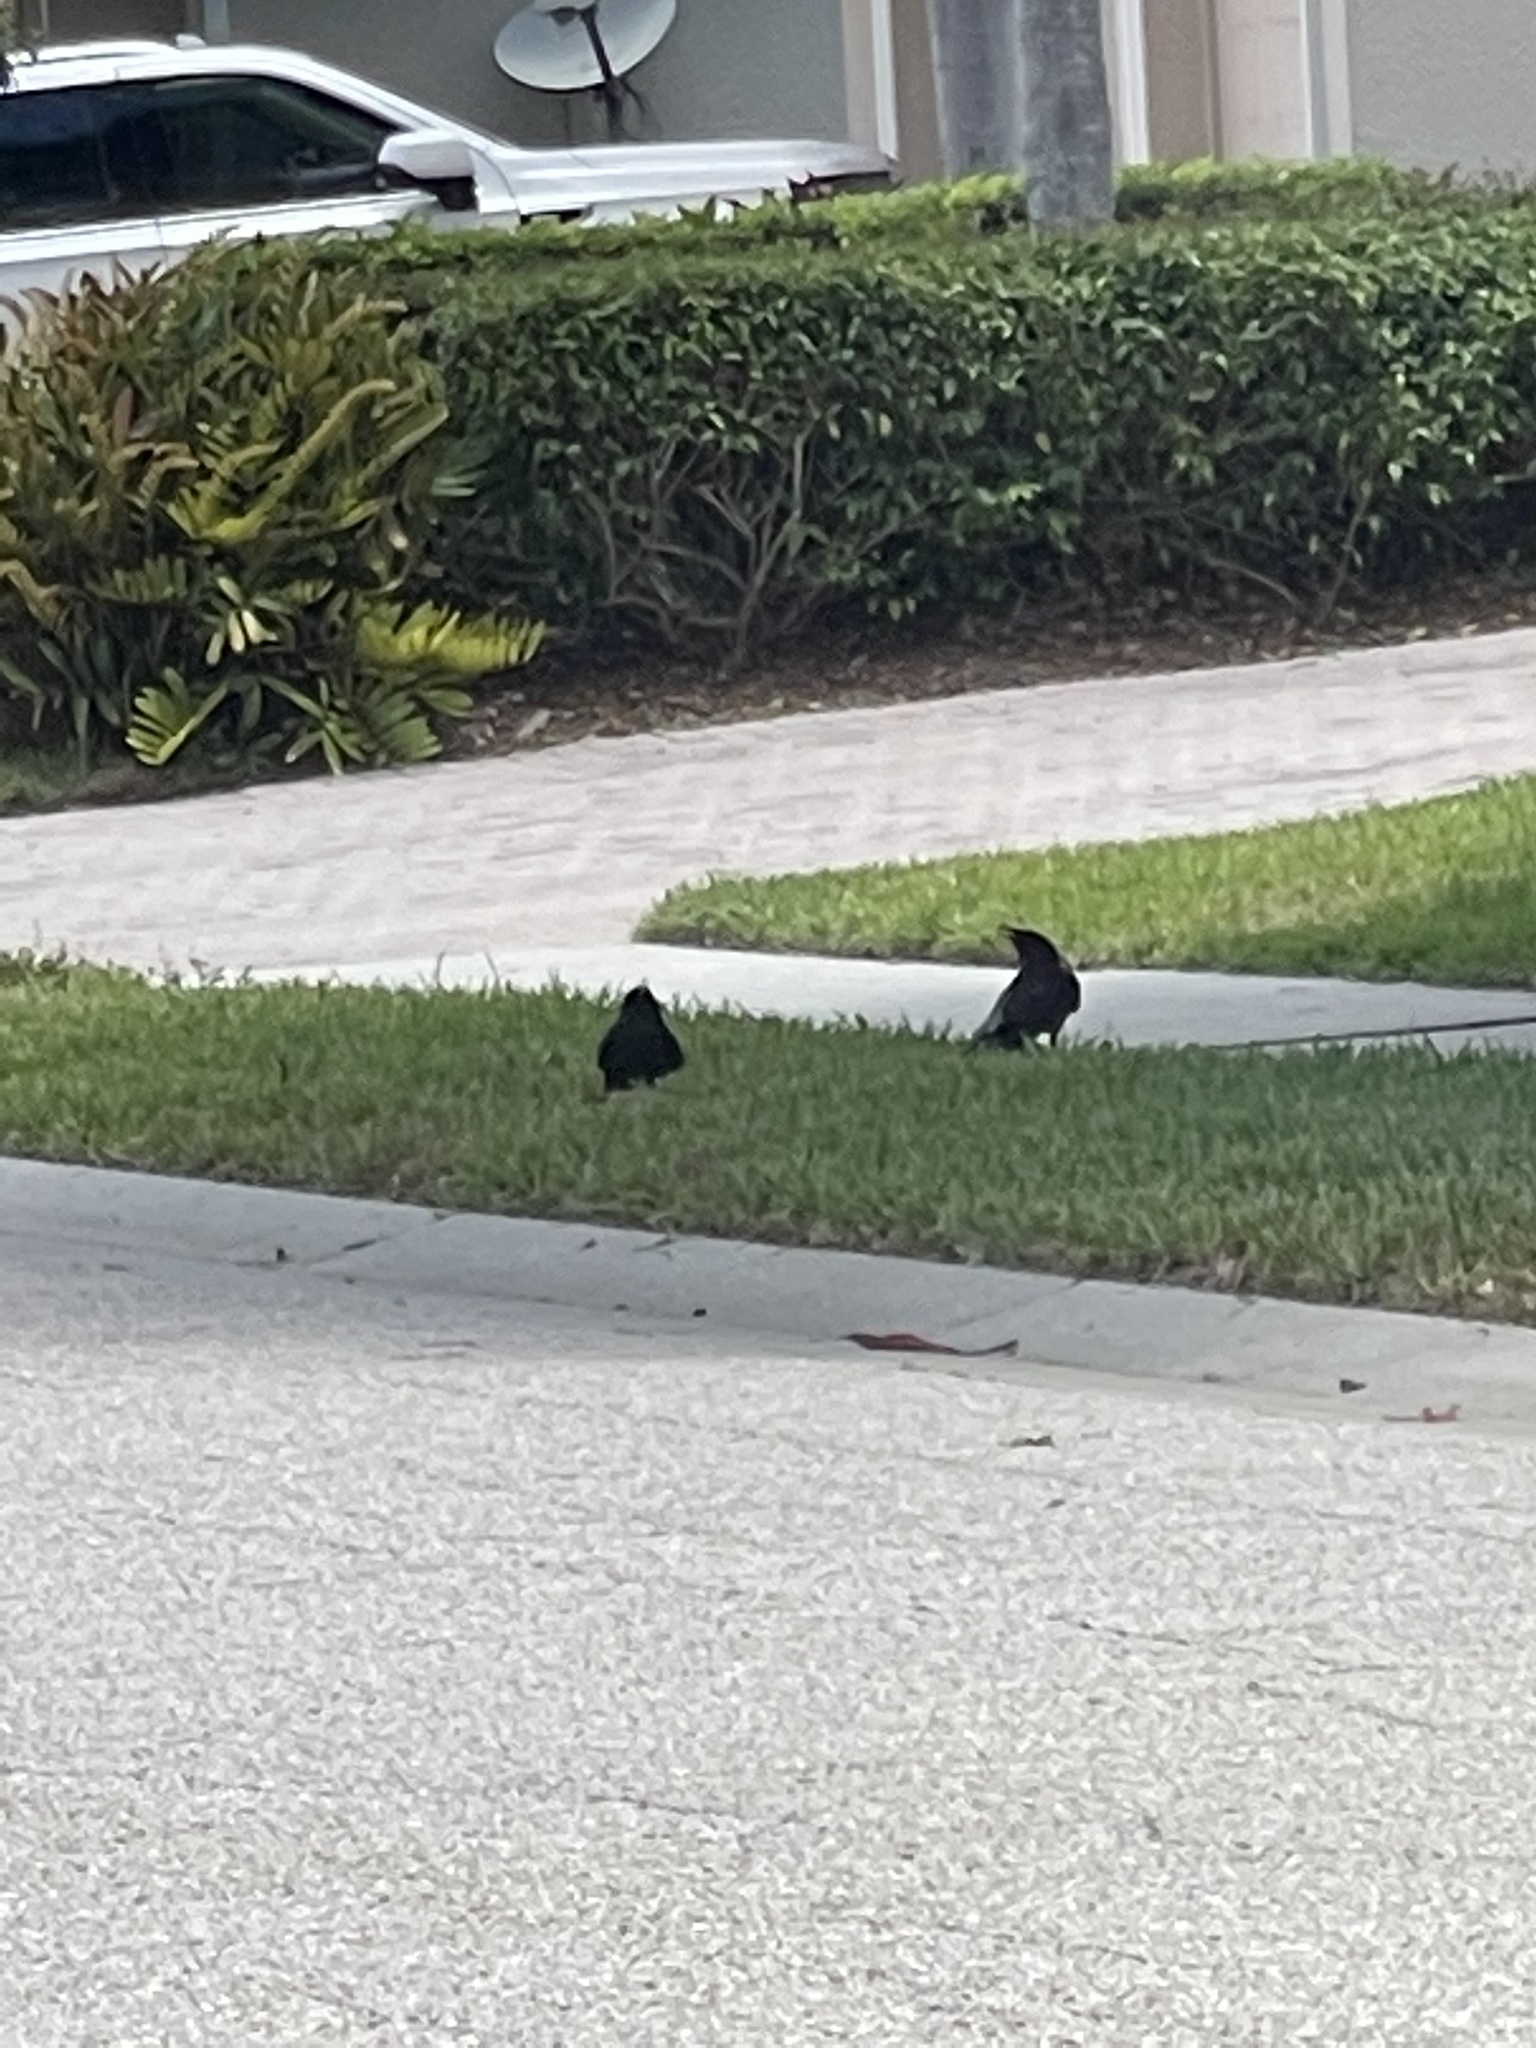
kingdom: Animalia
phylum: Chordata
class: Aves
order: Passeriformes
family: Corvidae
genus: Corvus
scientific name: Corvus ossifragus
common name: Fish crow
